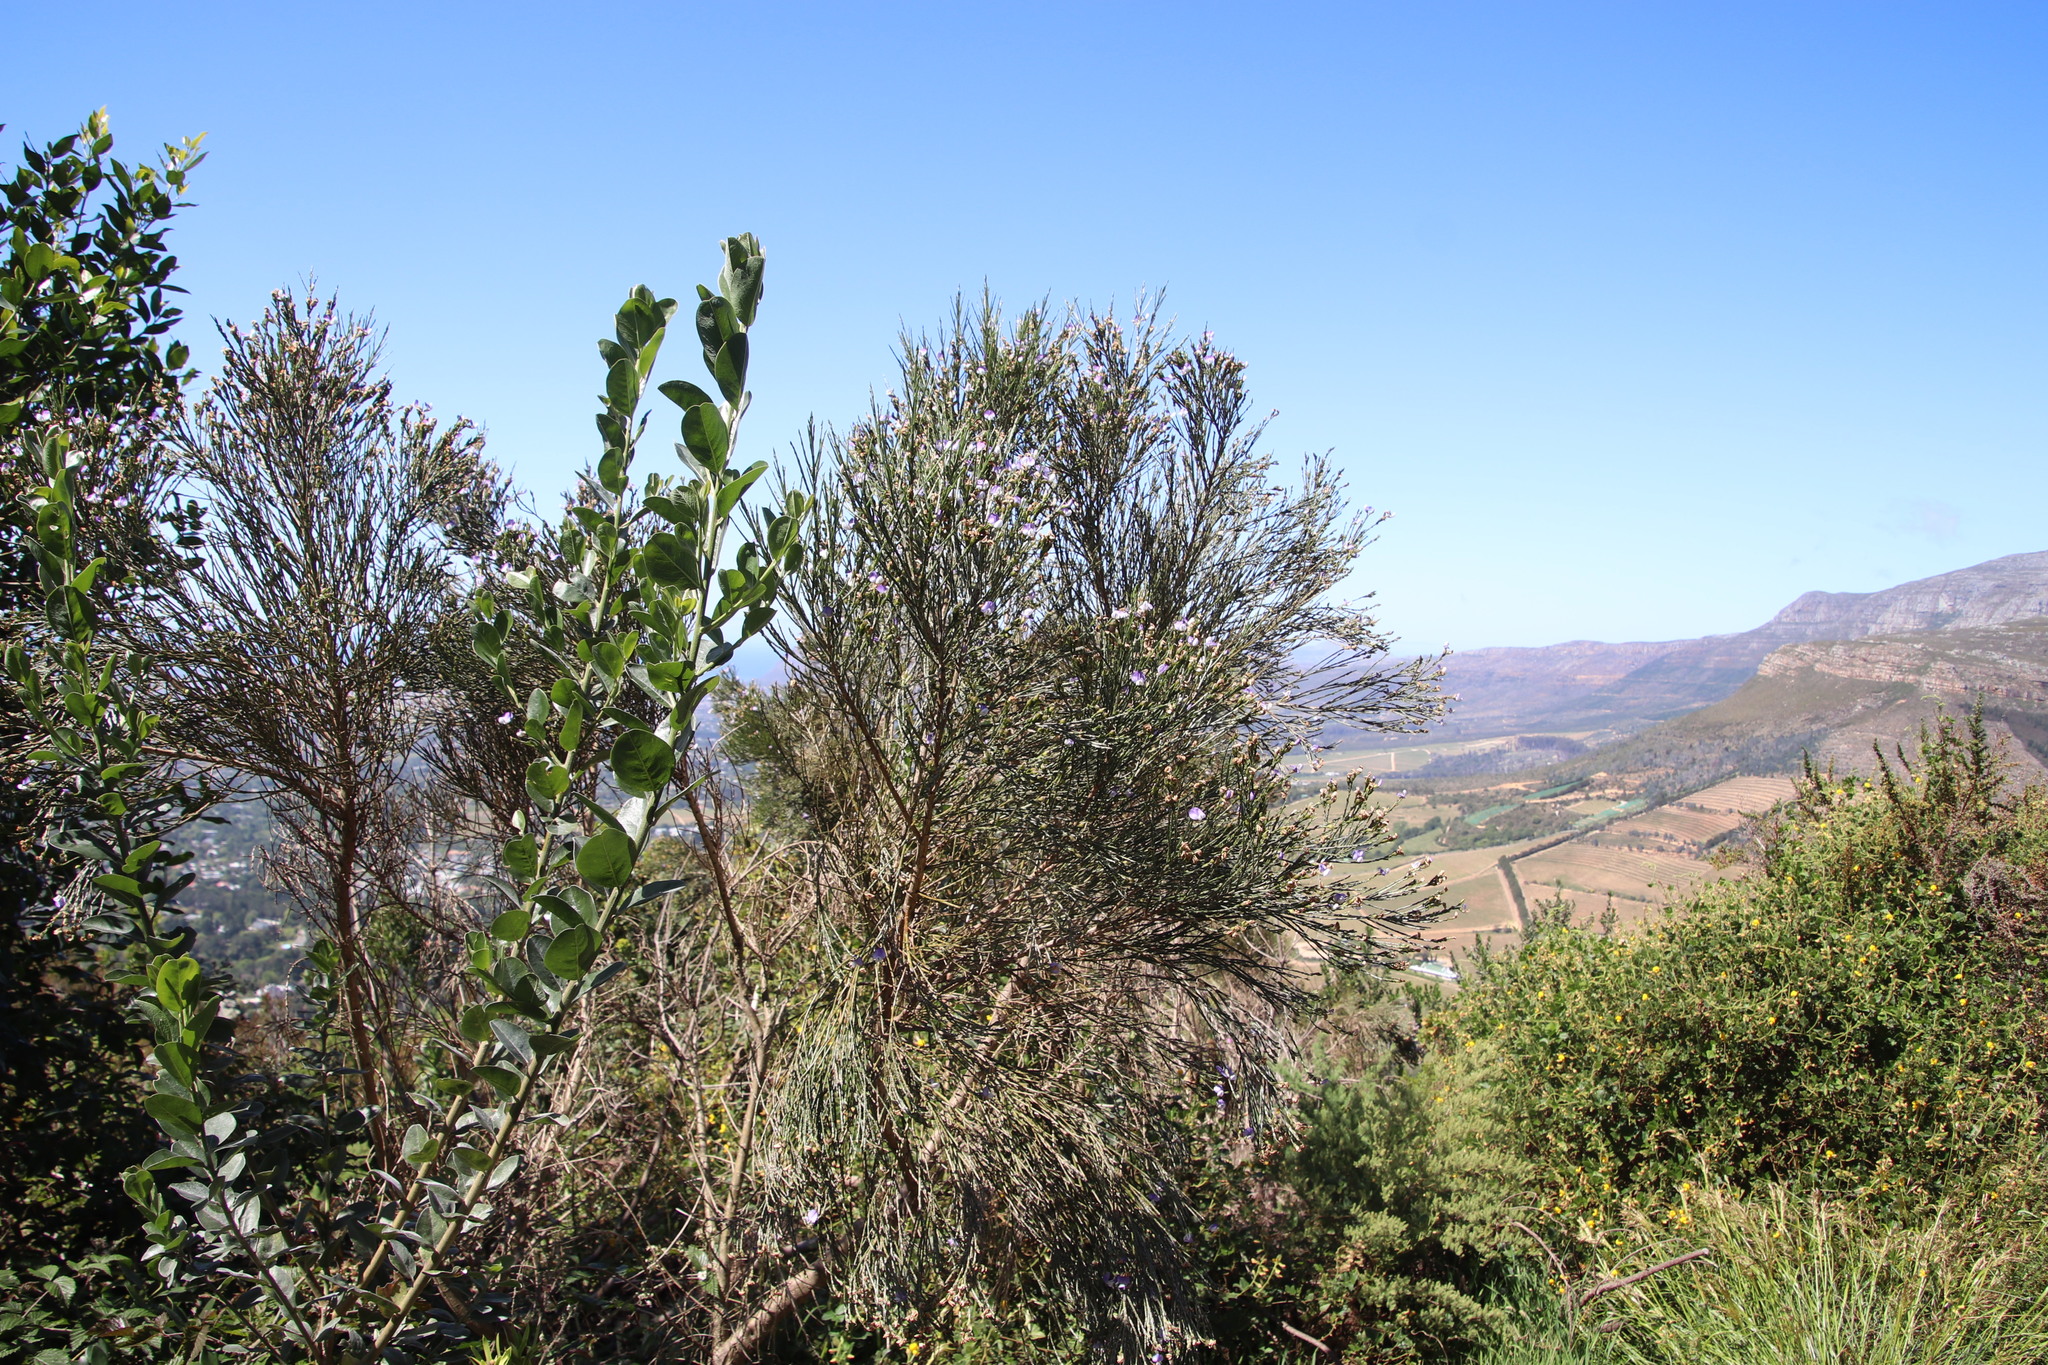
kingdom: Plantae
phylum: Tracheophyta
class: Magnoliopsida
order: Fabales
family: Fabaceae
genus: Psoralea
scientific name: Psoralea aphylla
